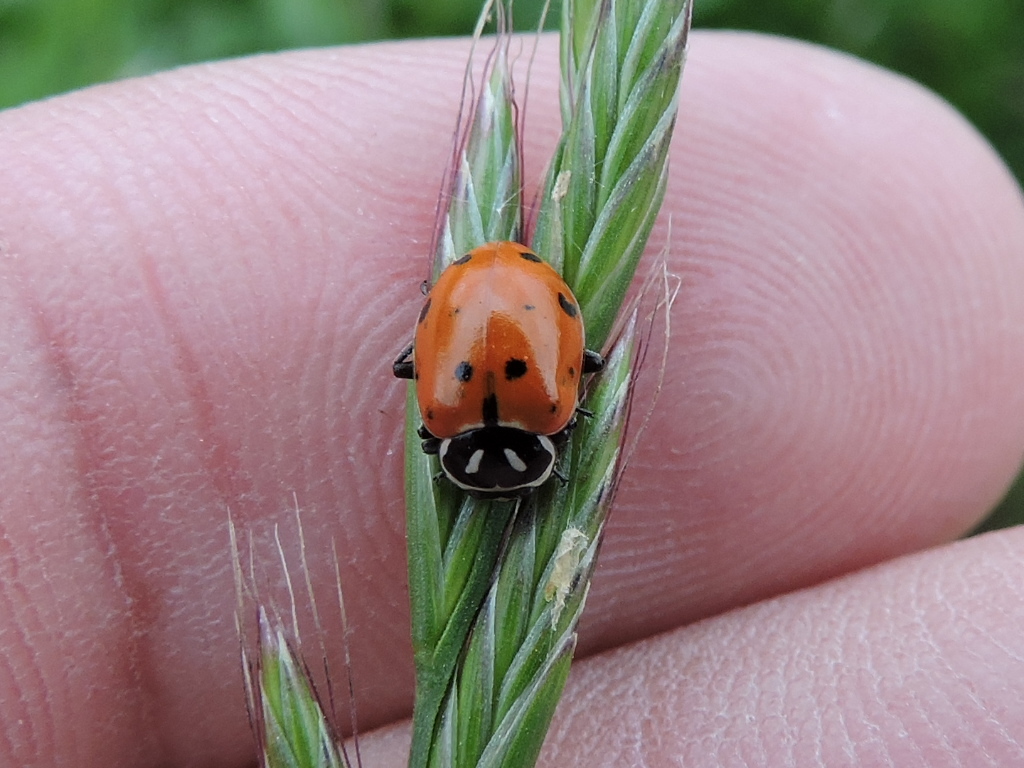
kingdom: Animalia
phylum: Arthropoda
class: Insecta
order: Coleoptera
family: Coccinellidae
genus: Hippodamia
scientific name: Hippodamia convergens
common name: Convergent lady beetle
